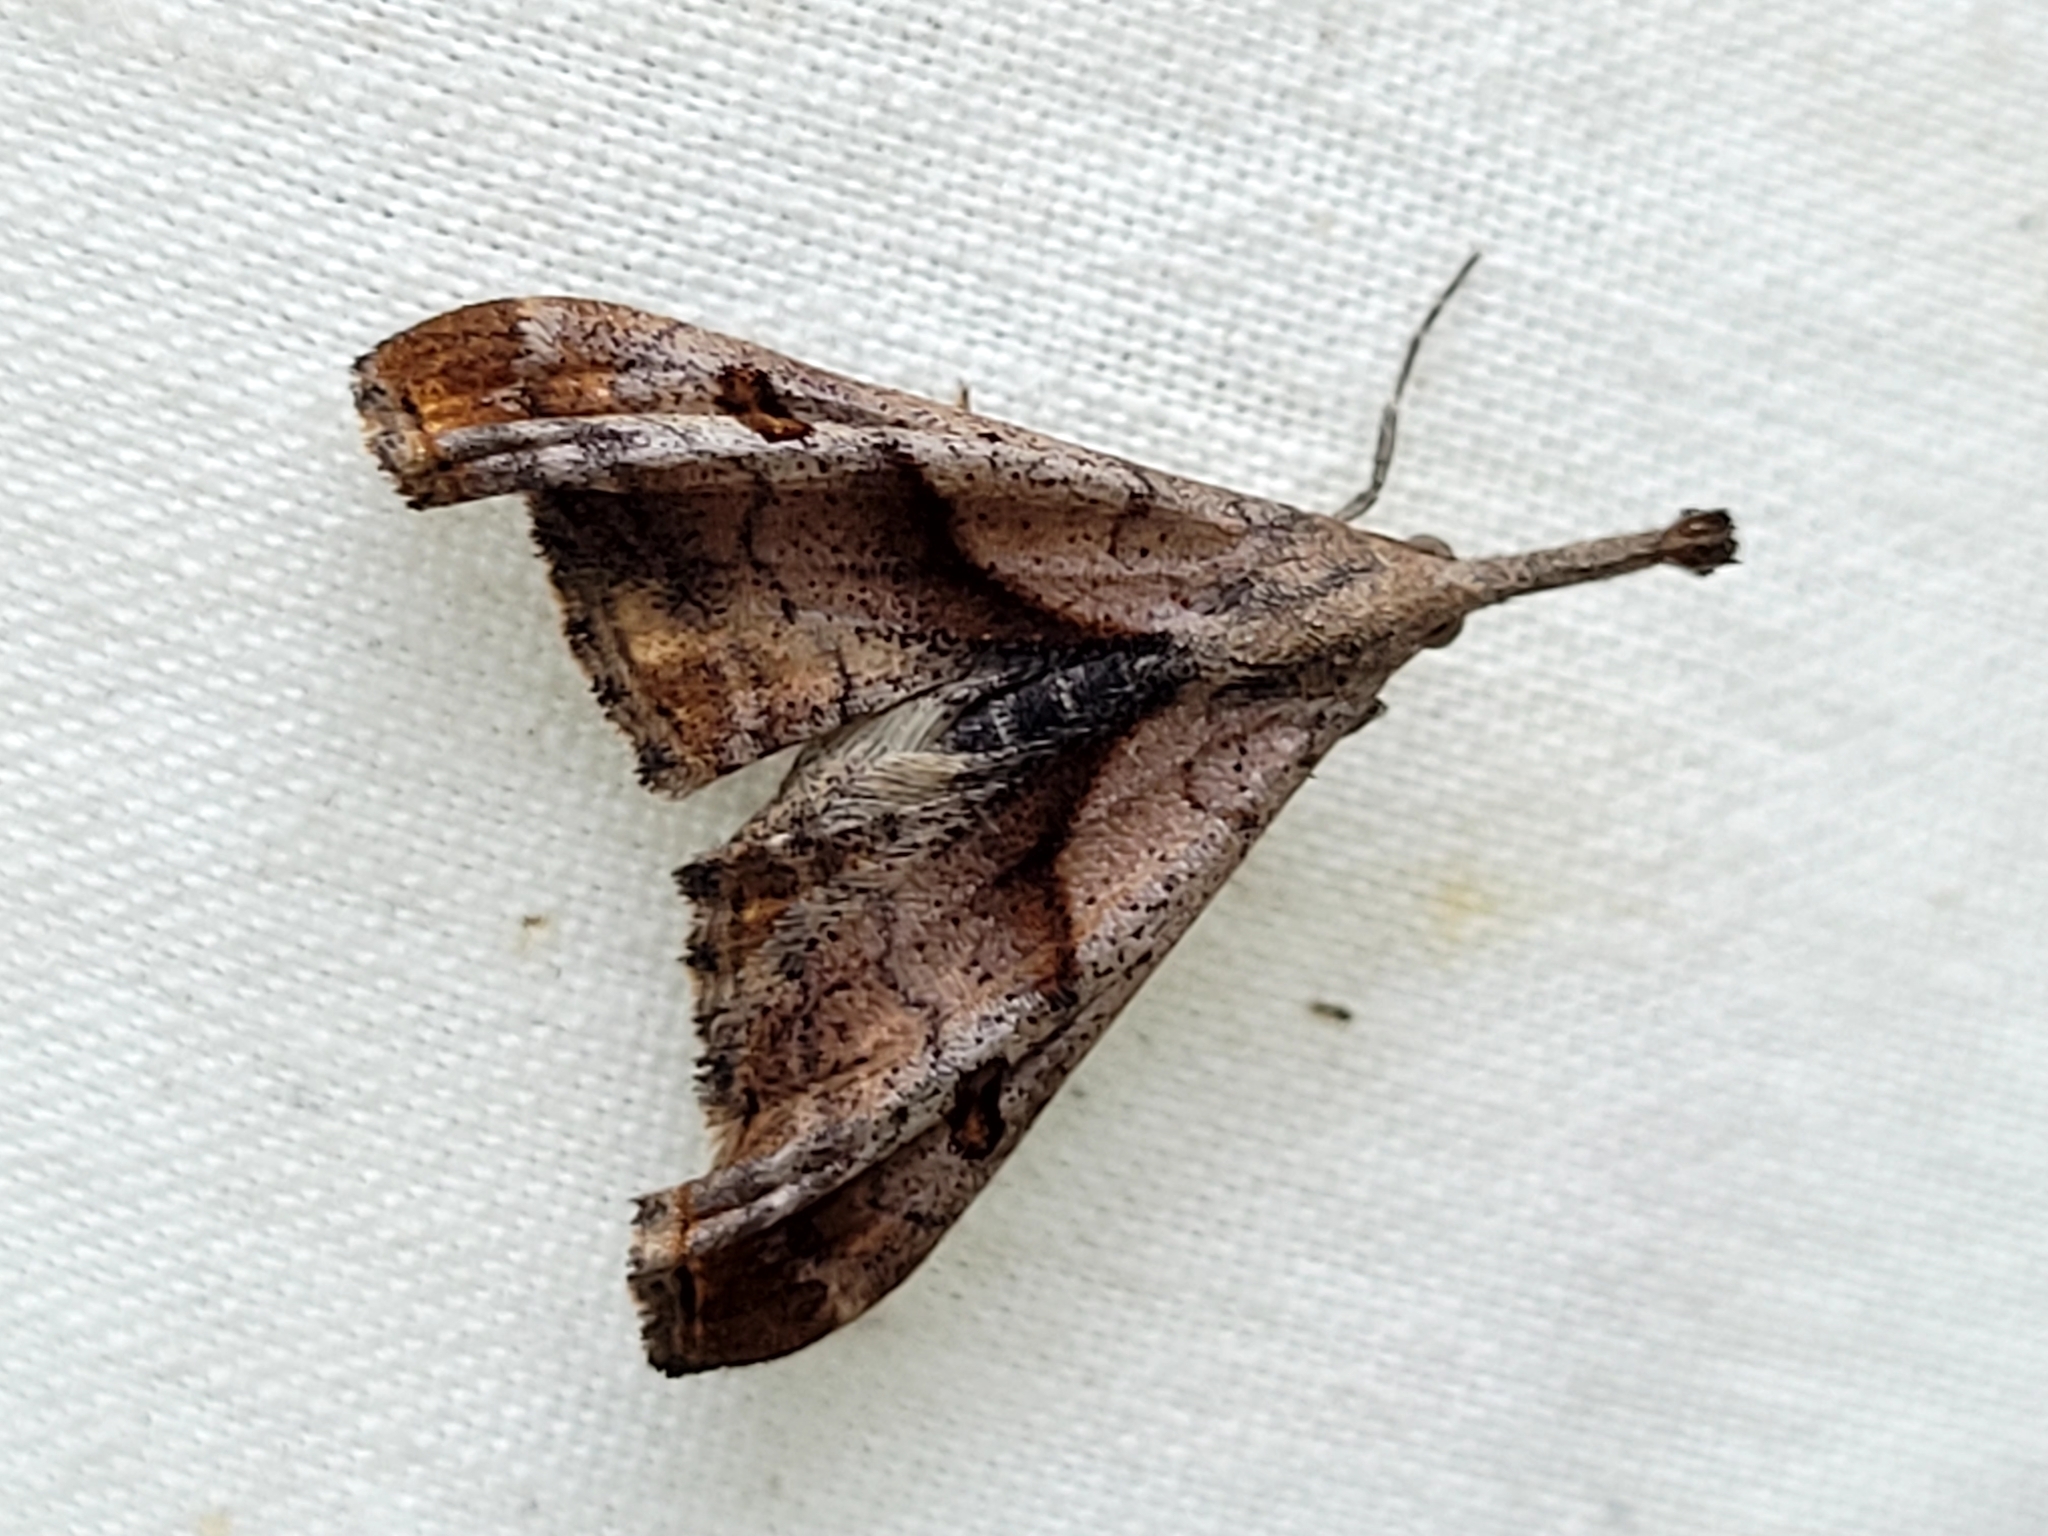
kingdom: Animalia
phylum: Arthropoda
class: Insecta
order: Lepidoptera
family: Erebidae
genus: Palthis
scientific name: Palthis angulalis
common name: Dark-spotted palthis moth
